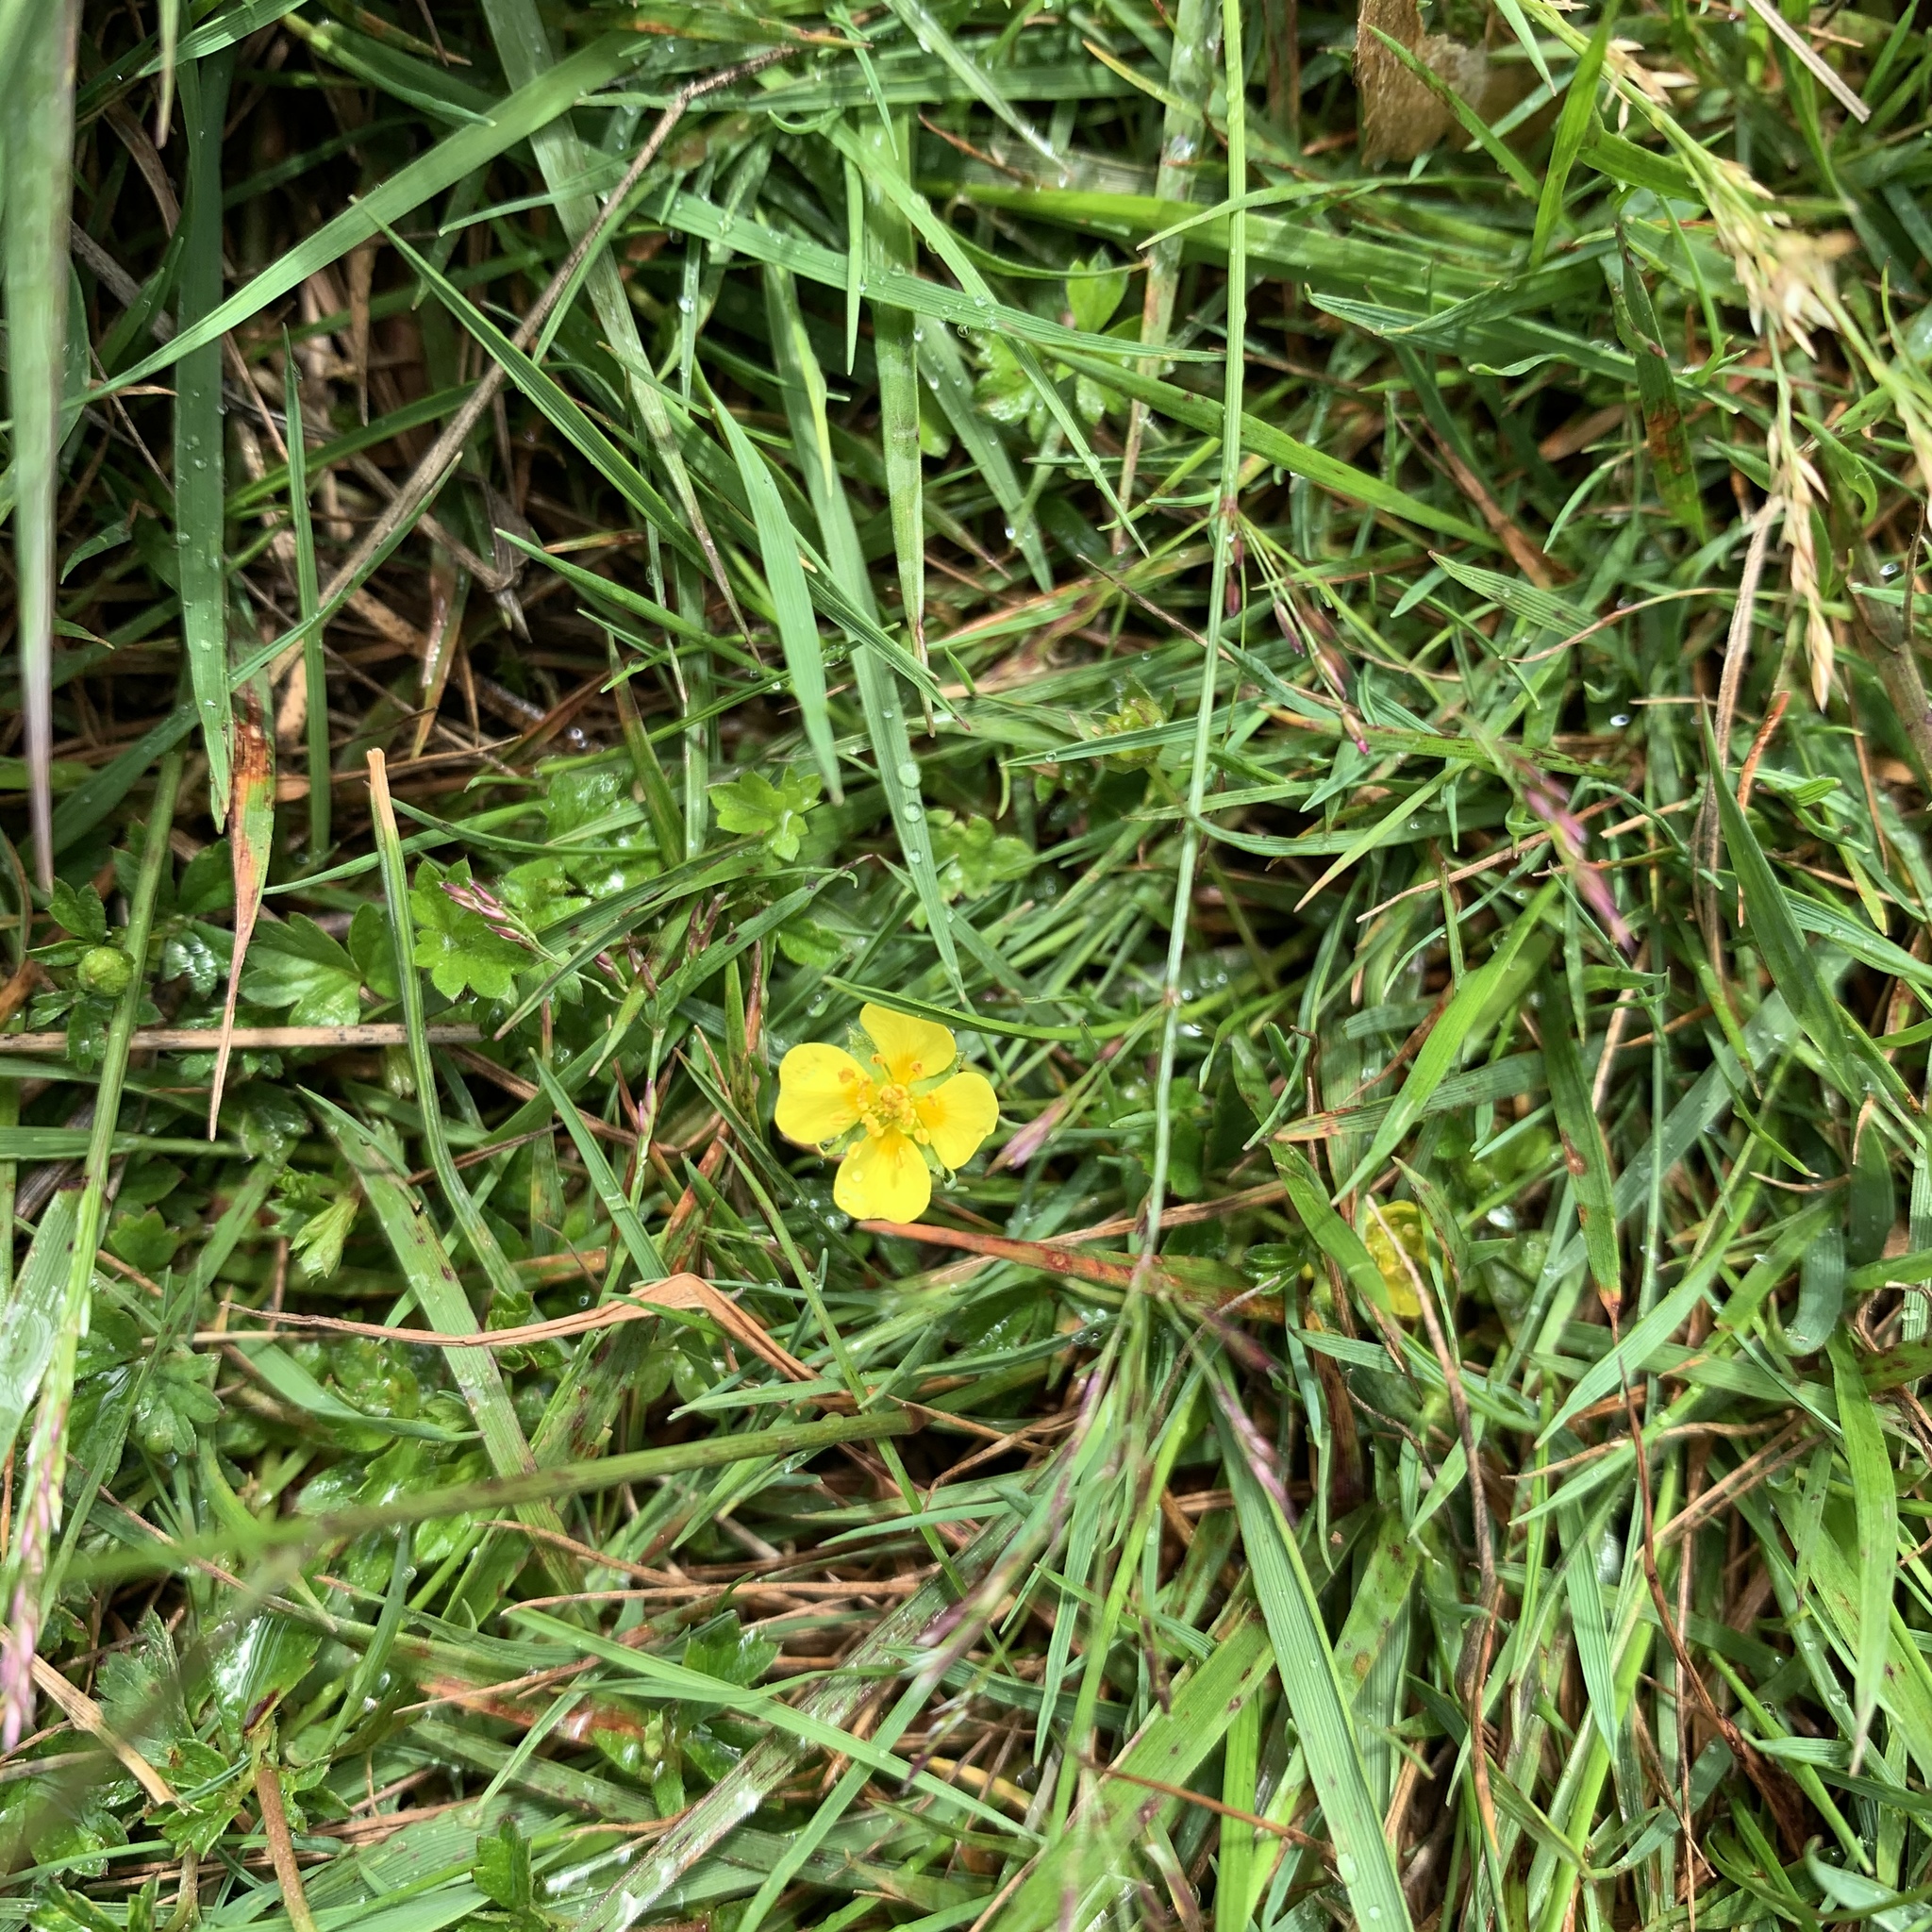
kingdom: Plantae
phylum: Tracheophyta
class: Magnoliopsida
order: Rosales
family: Rosaceae
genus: Potentilla
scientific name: Potentilla erecta
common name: Tormentil
